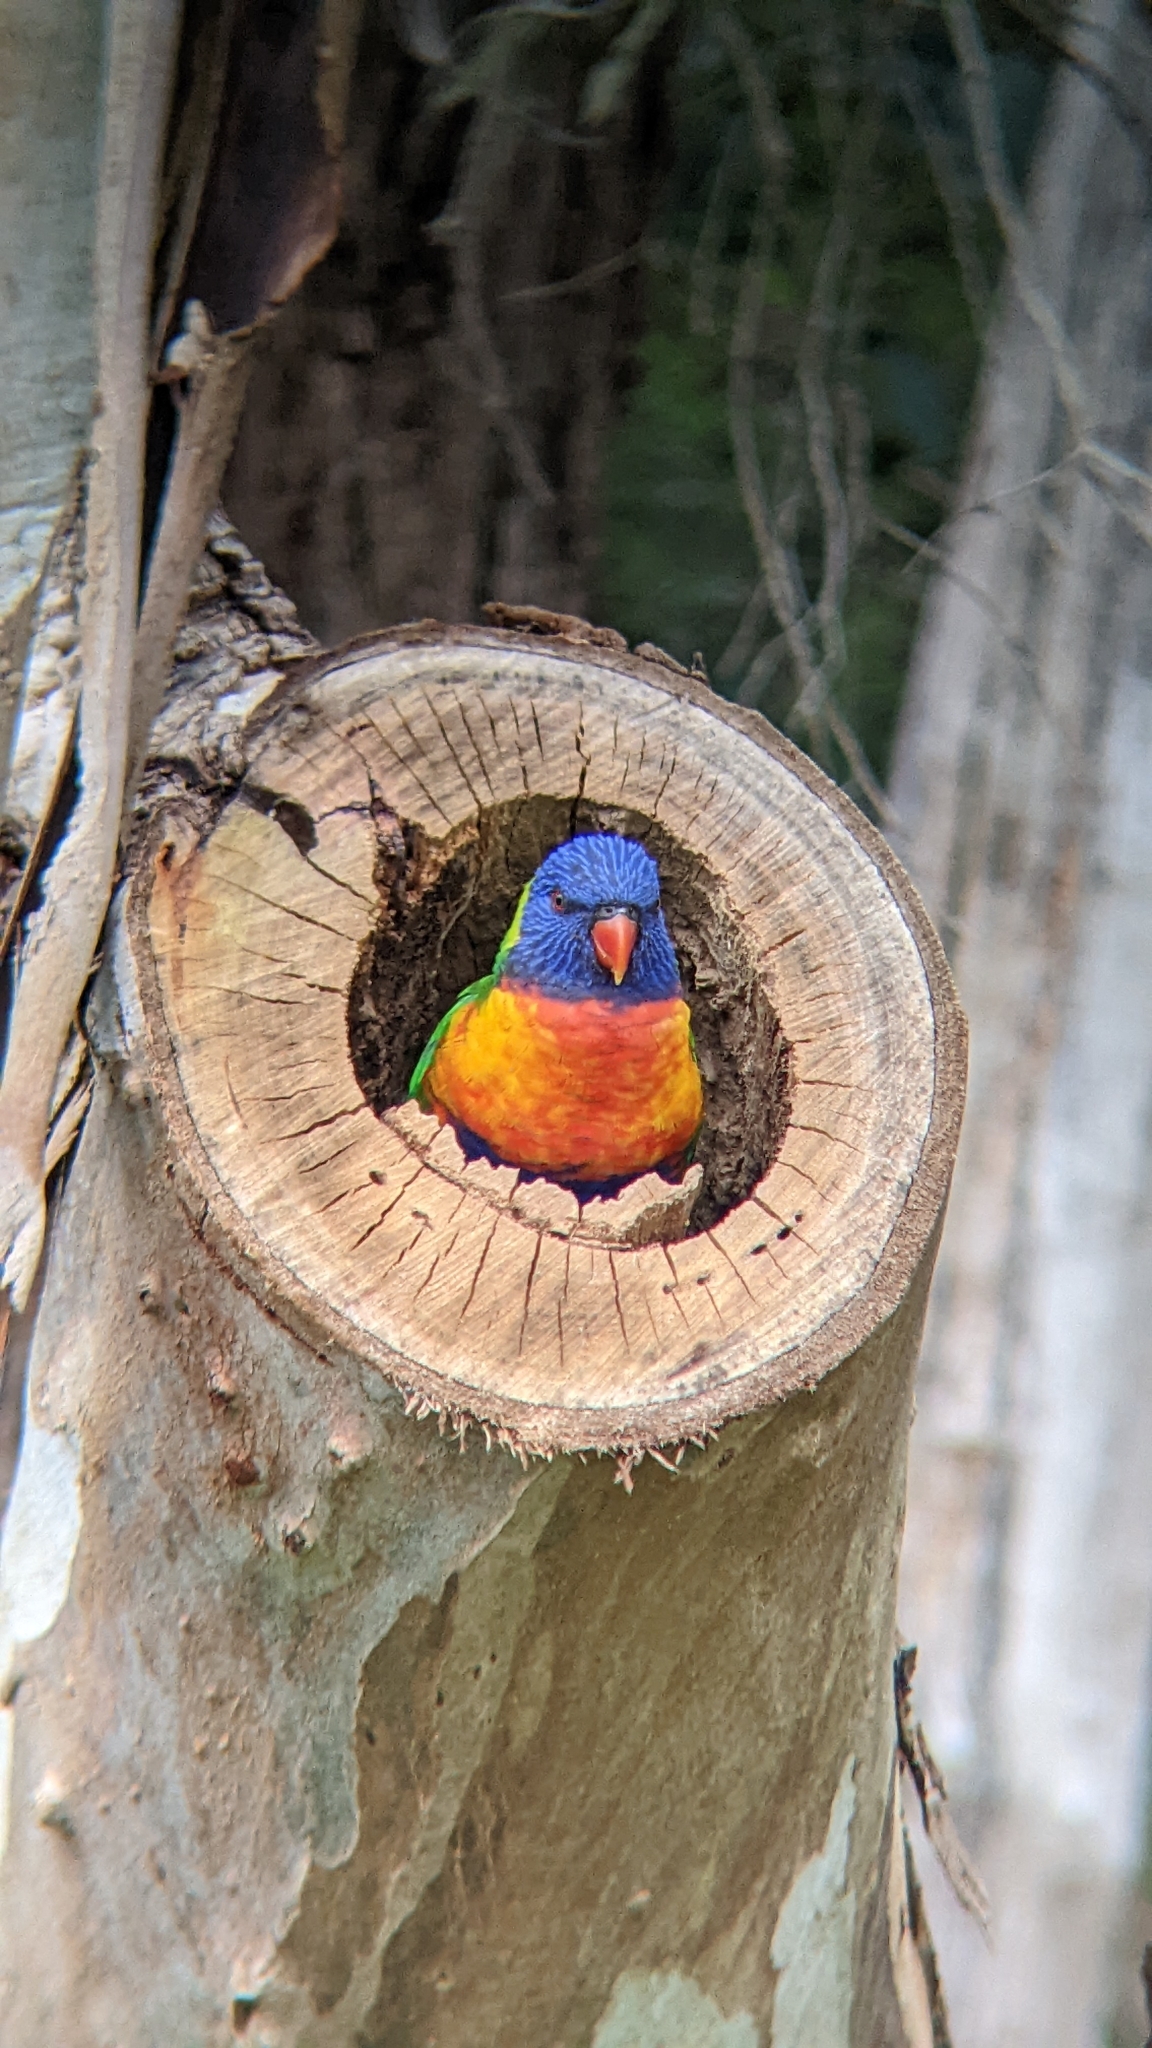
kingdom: Animalia
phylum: Chordata
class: Aves
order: Psittaciformes
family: Psittacidae
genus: Trichoglossus
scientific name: Trichoglossus haematodus
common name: Coconut lorikeet
